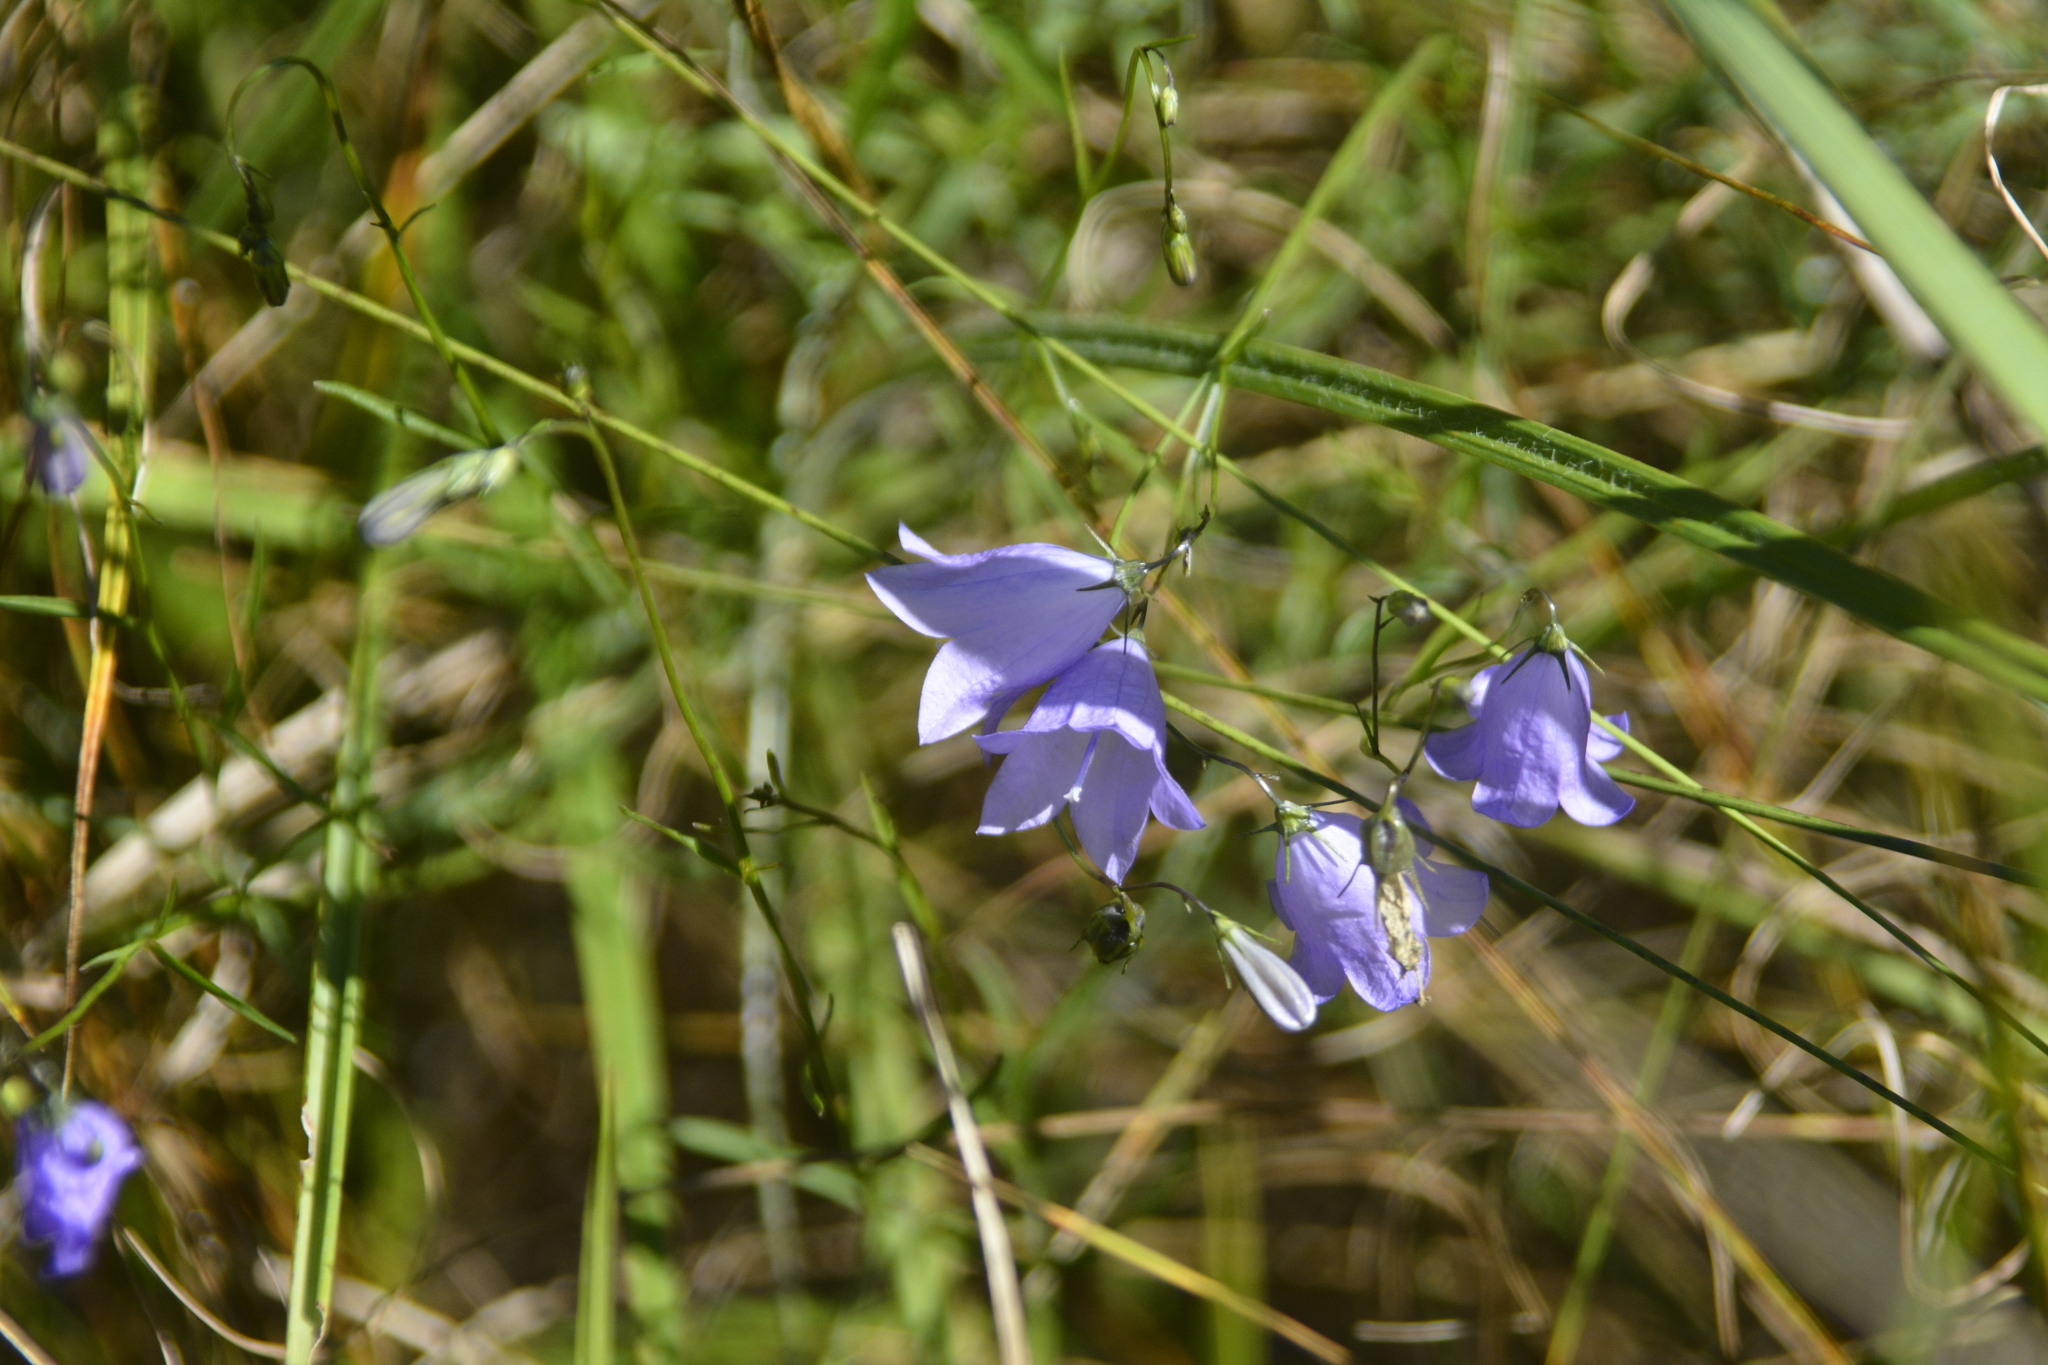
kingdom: Plantae
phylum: Tracheophyta
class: Magnoliopsida
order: Asterales
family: Campanulaceae
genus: Campanula
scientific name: Campanula rotundifolia
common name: Harebell
